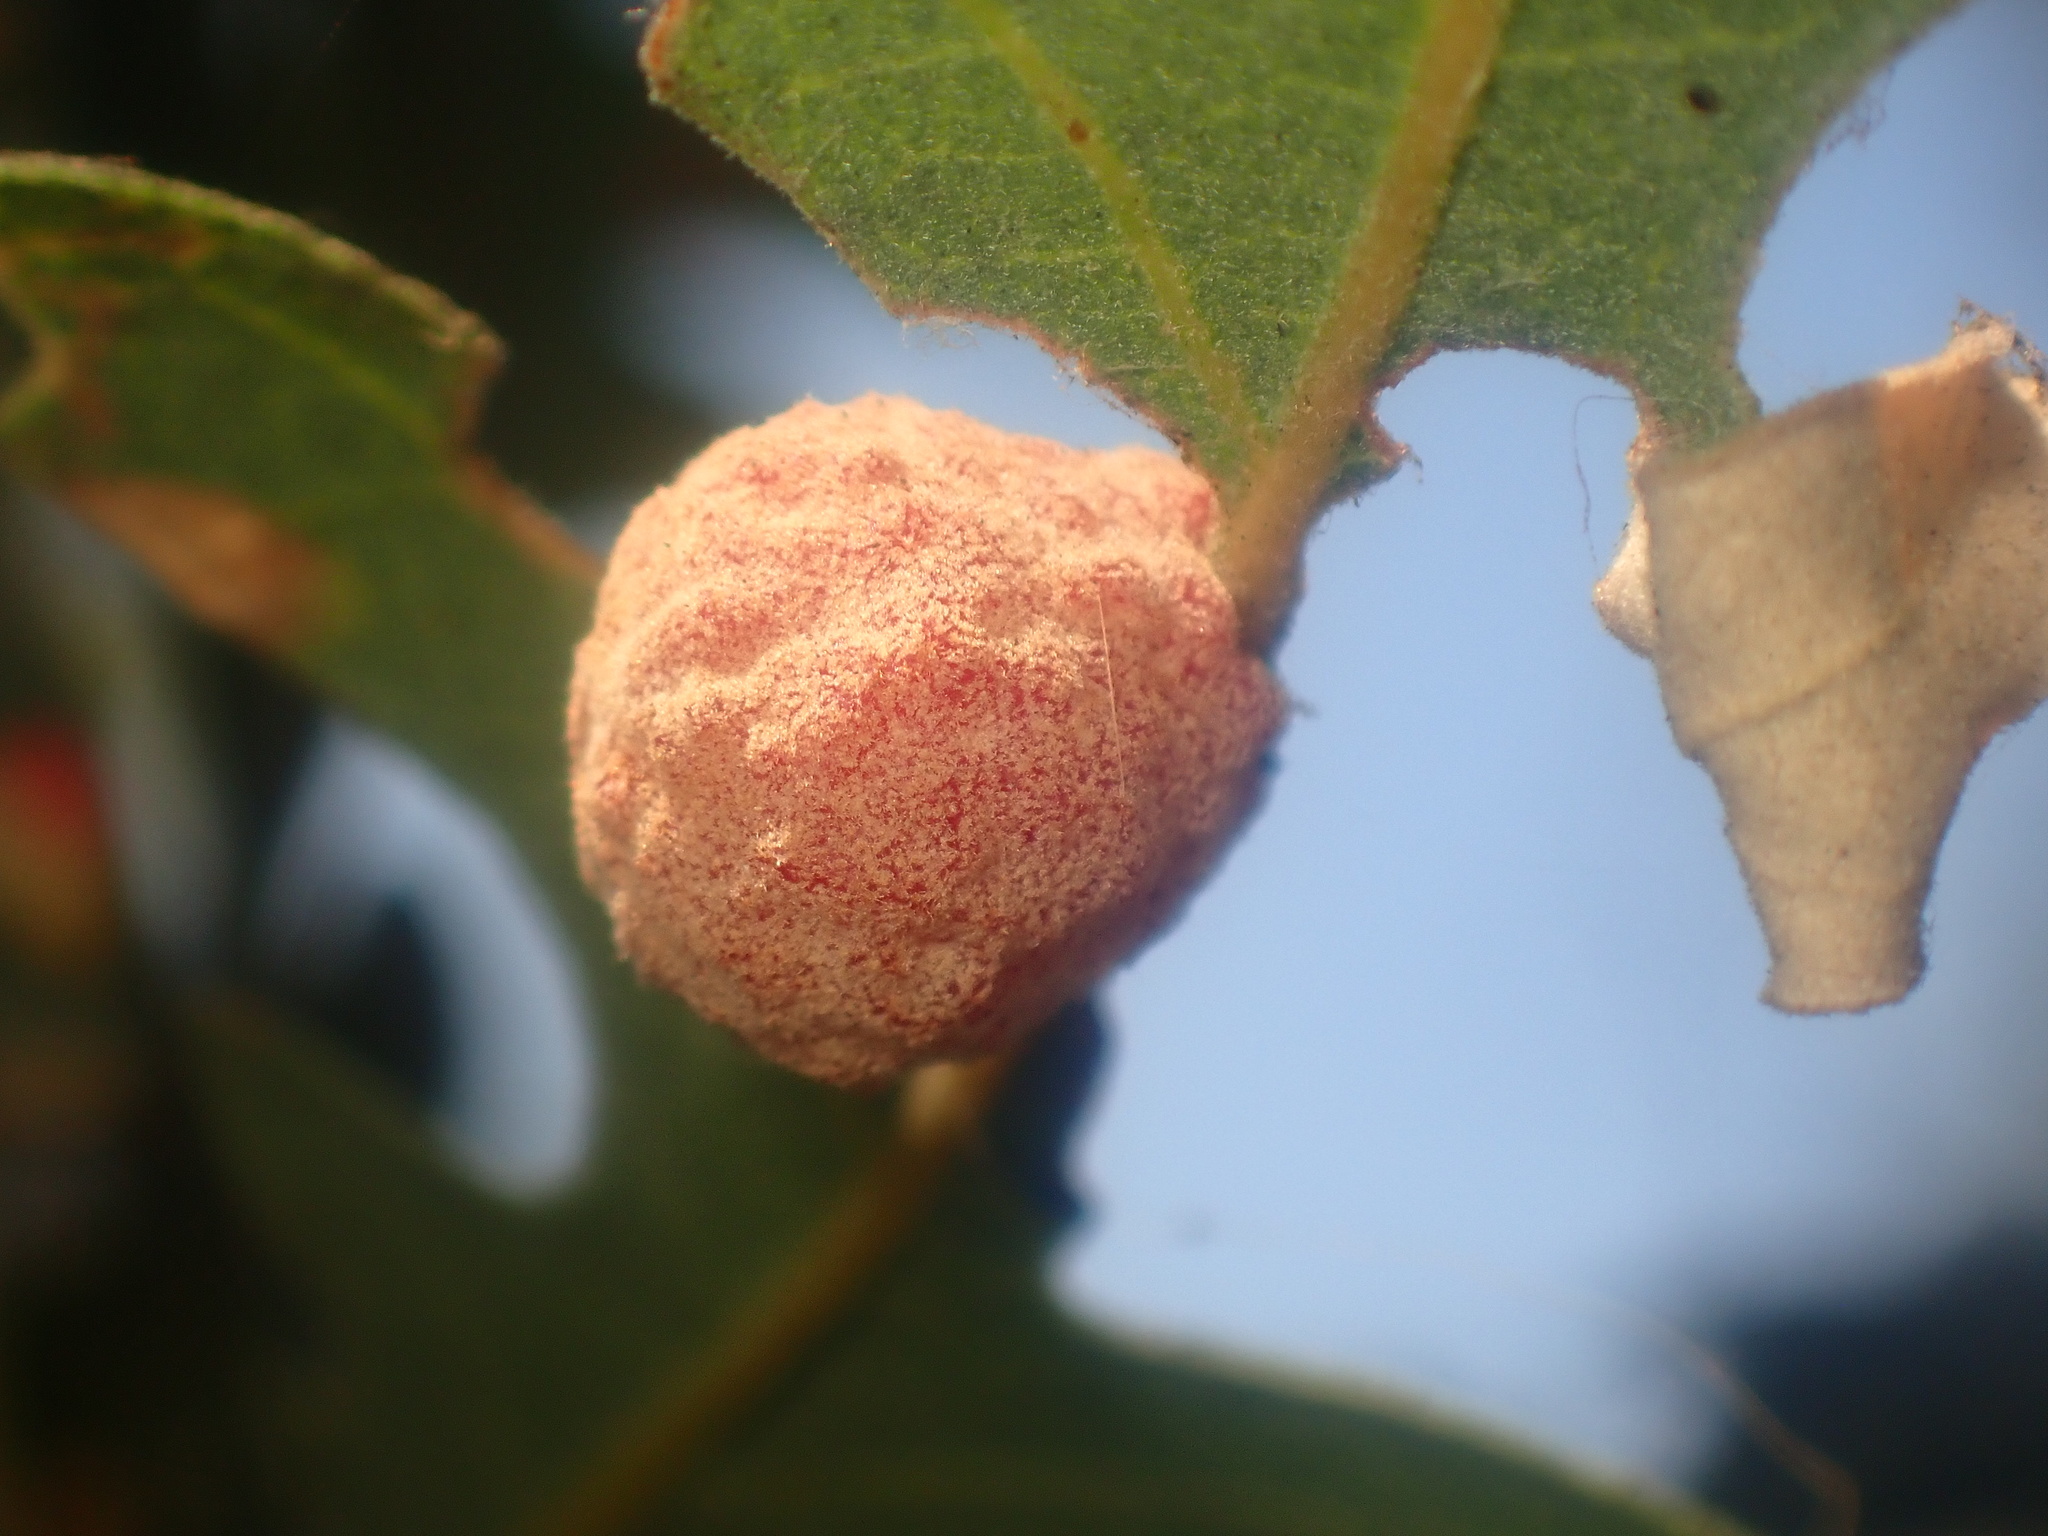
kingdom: Animalia
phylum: Arthropoda
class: Insecta
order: Hymenoptera
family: Cynipidae
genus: Cynips
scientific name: Cynips conspicua
